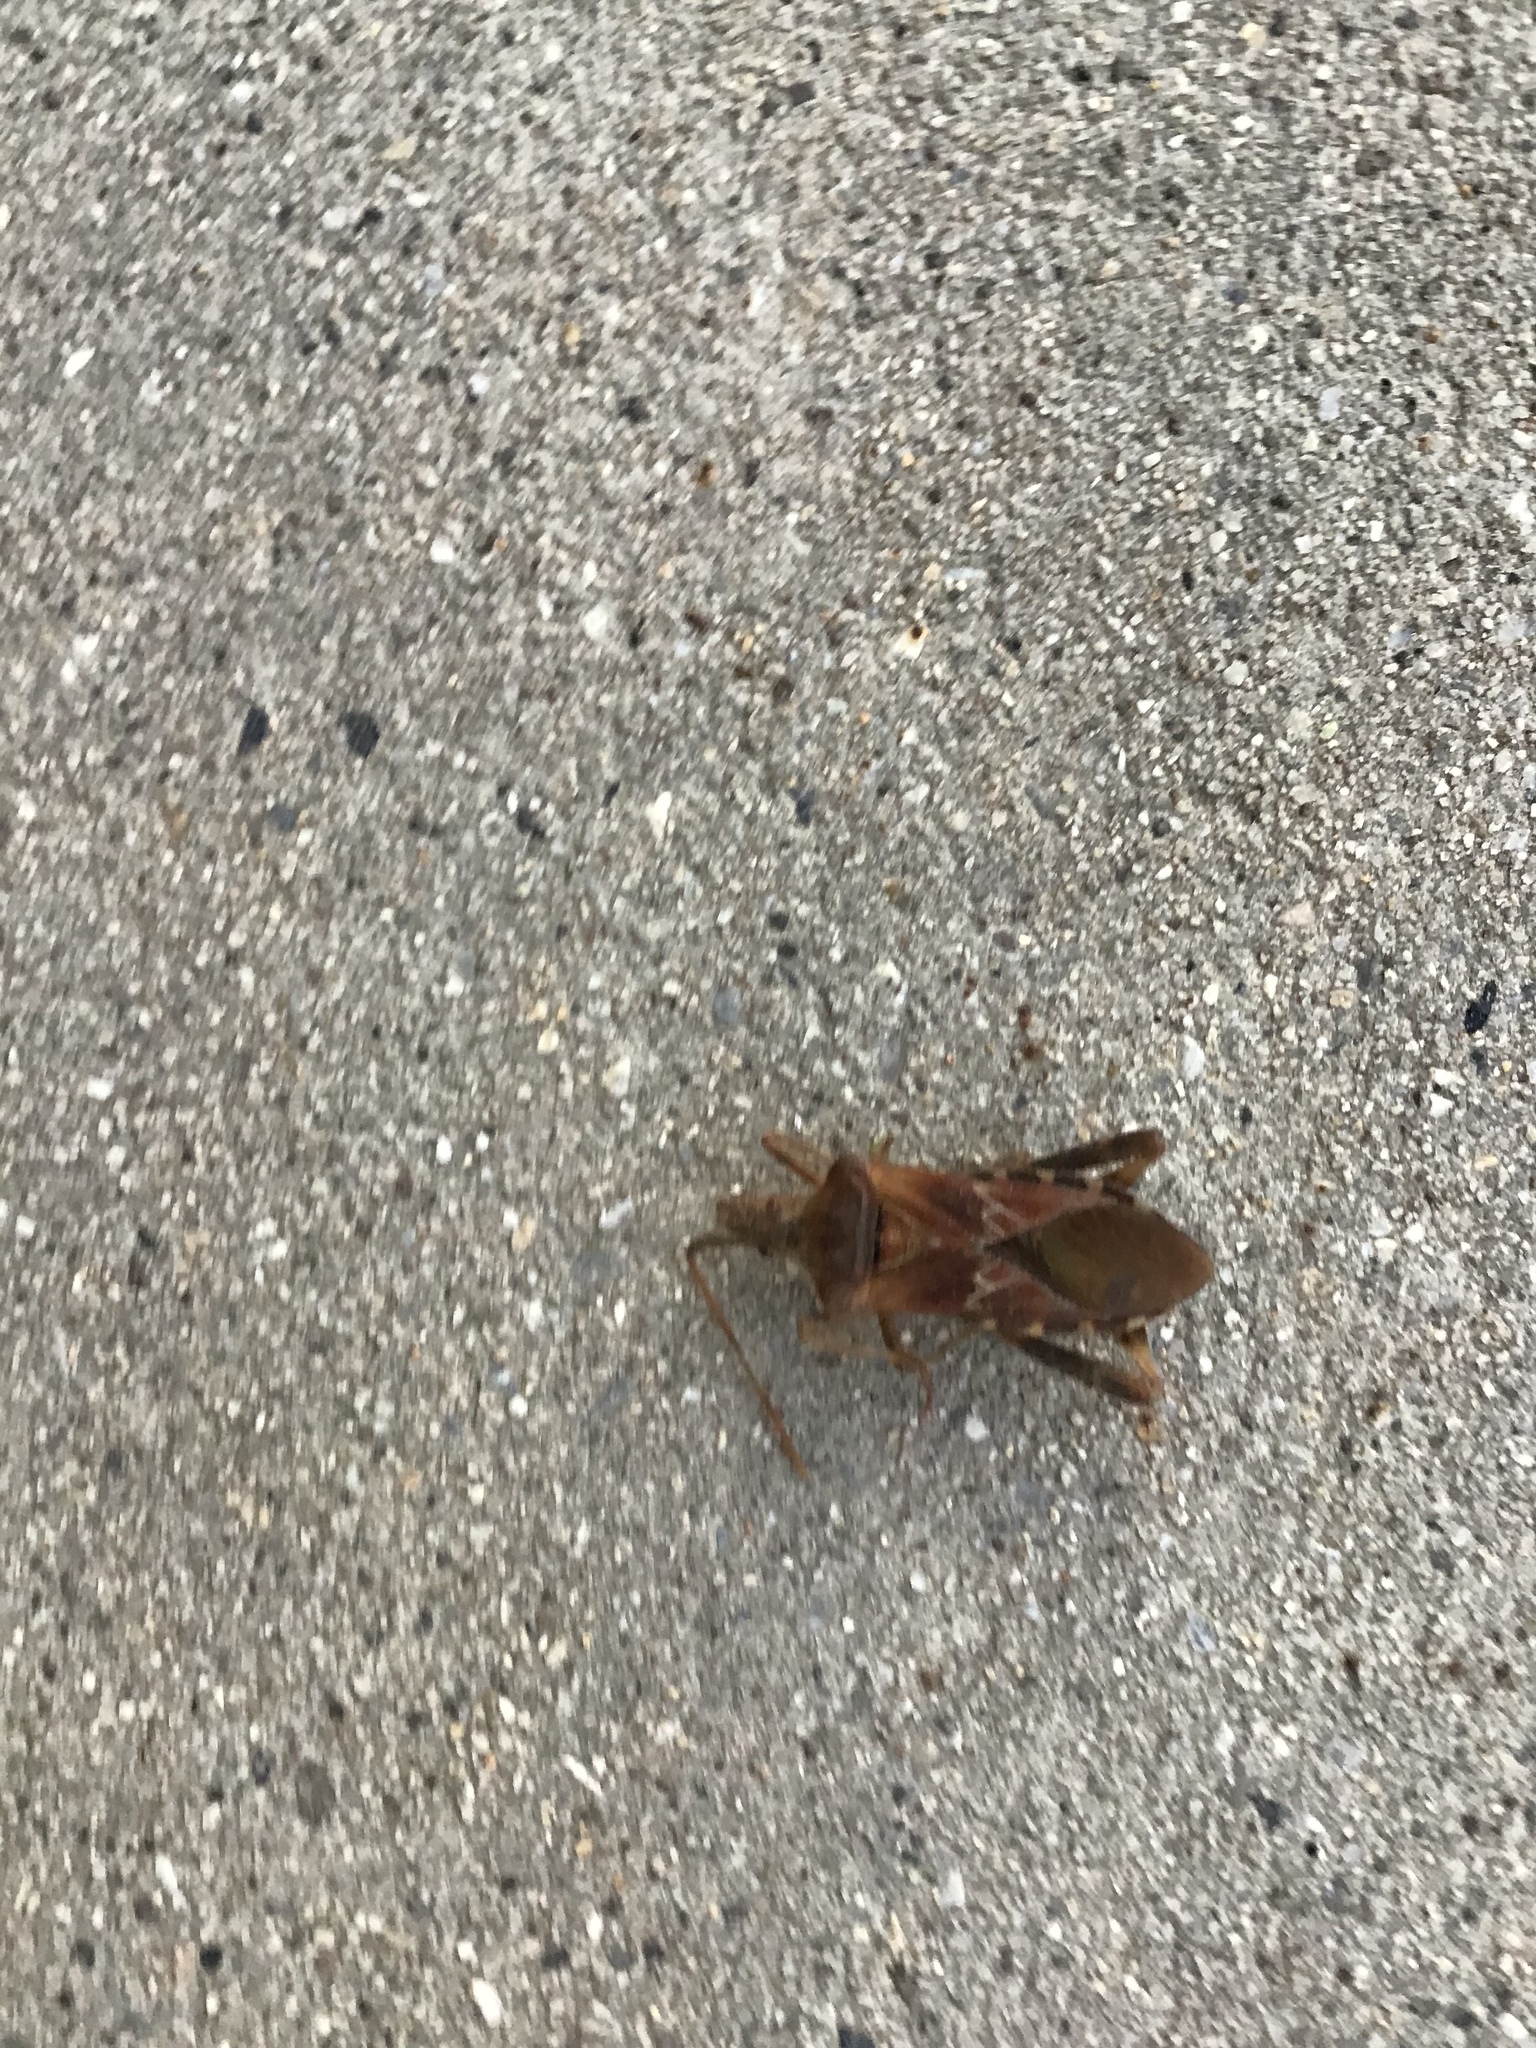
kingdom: Animalia
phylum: Arthropoda
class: Insecta
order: Hemiptera
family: Coreidae
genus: Leptoglossus
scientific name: Leptoglossus occidentalis
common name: Western conifer-seed bug
